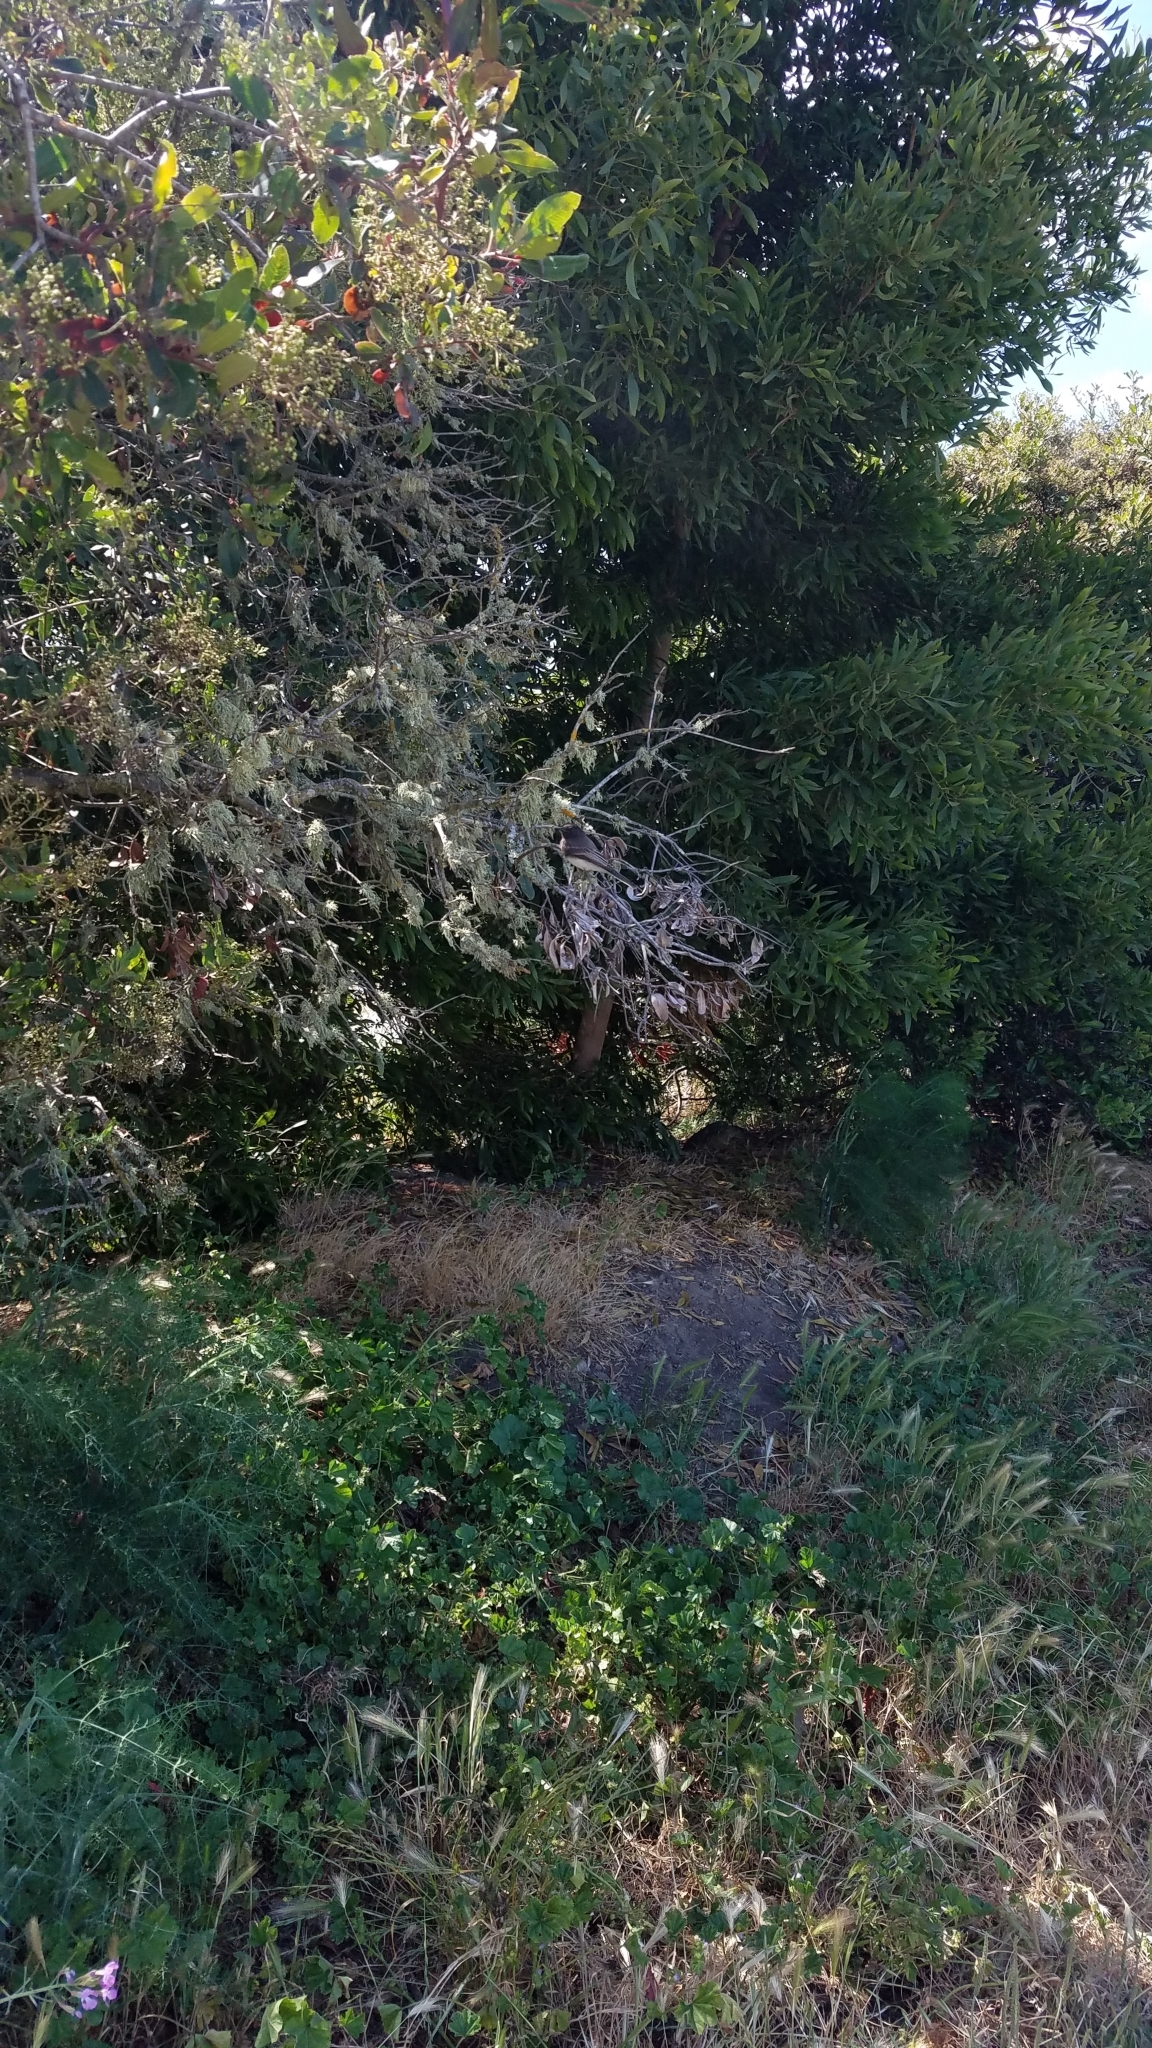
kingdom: Animalia
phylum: Chordata
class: Aves
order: Passeriformes
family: Tyrannidae
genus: Sayornis
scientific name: Sayornis nigricans
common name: Black phoebe
